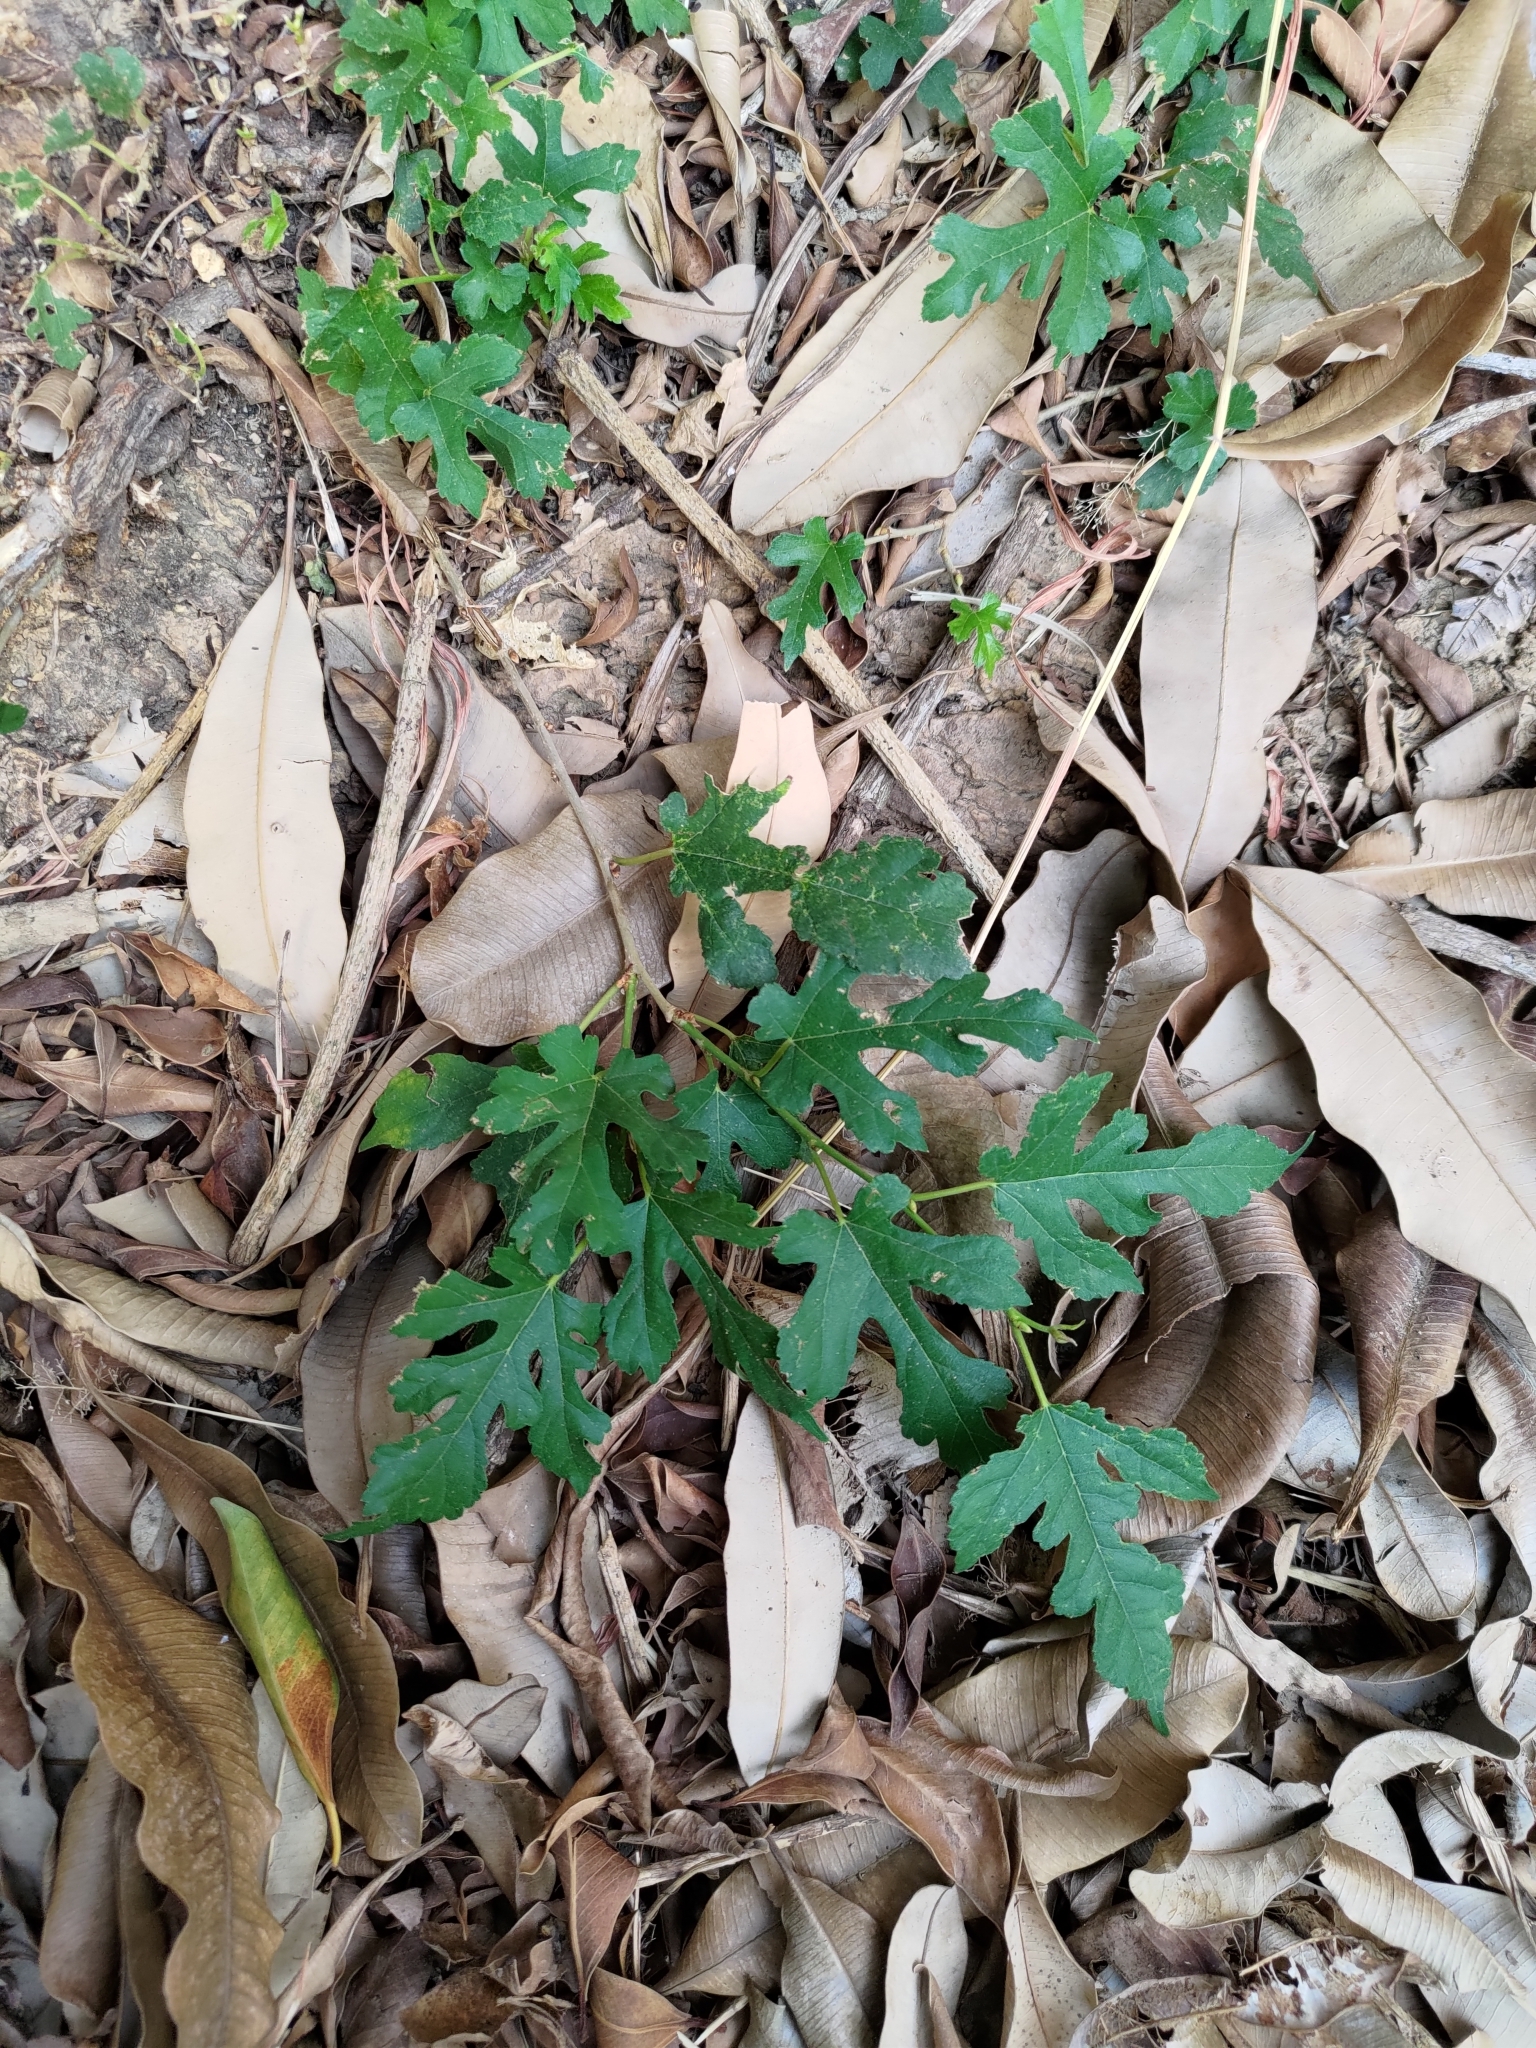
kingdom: Plantae
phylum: Tracheophyta
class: Magnoliopsida
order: Rosales
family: Moraceae
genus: Morus
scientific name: Morus indica
